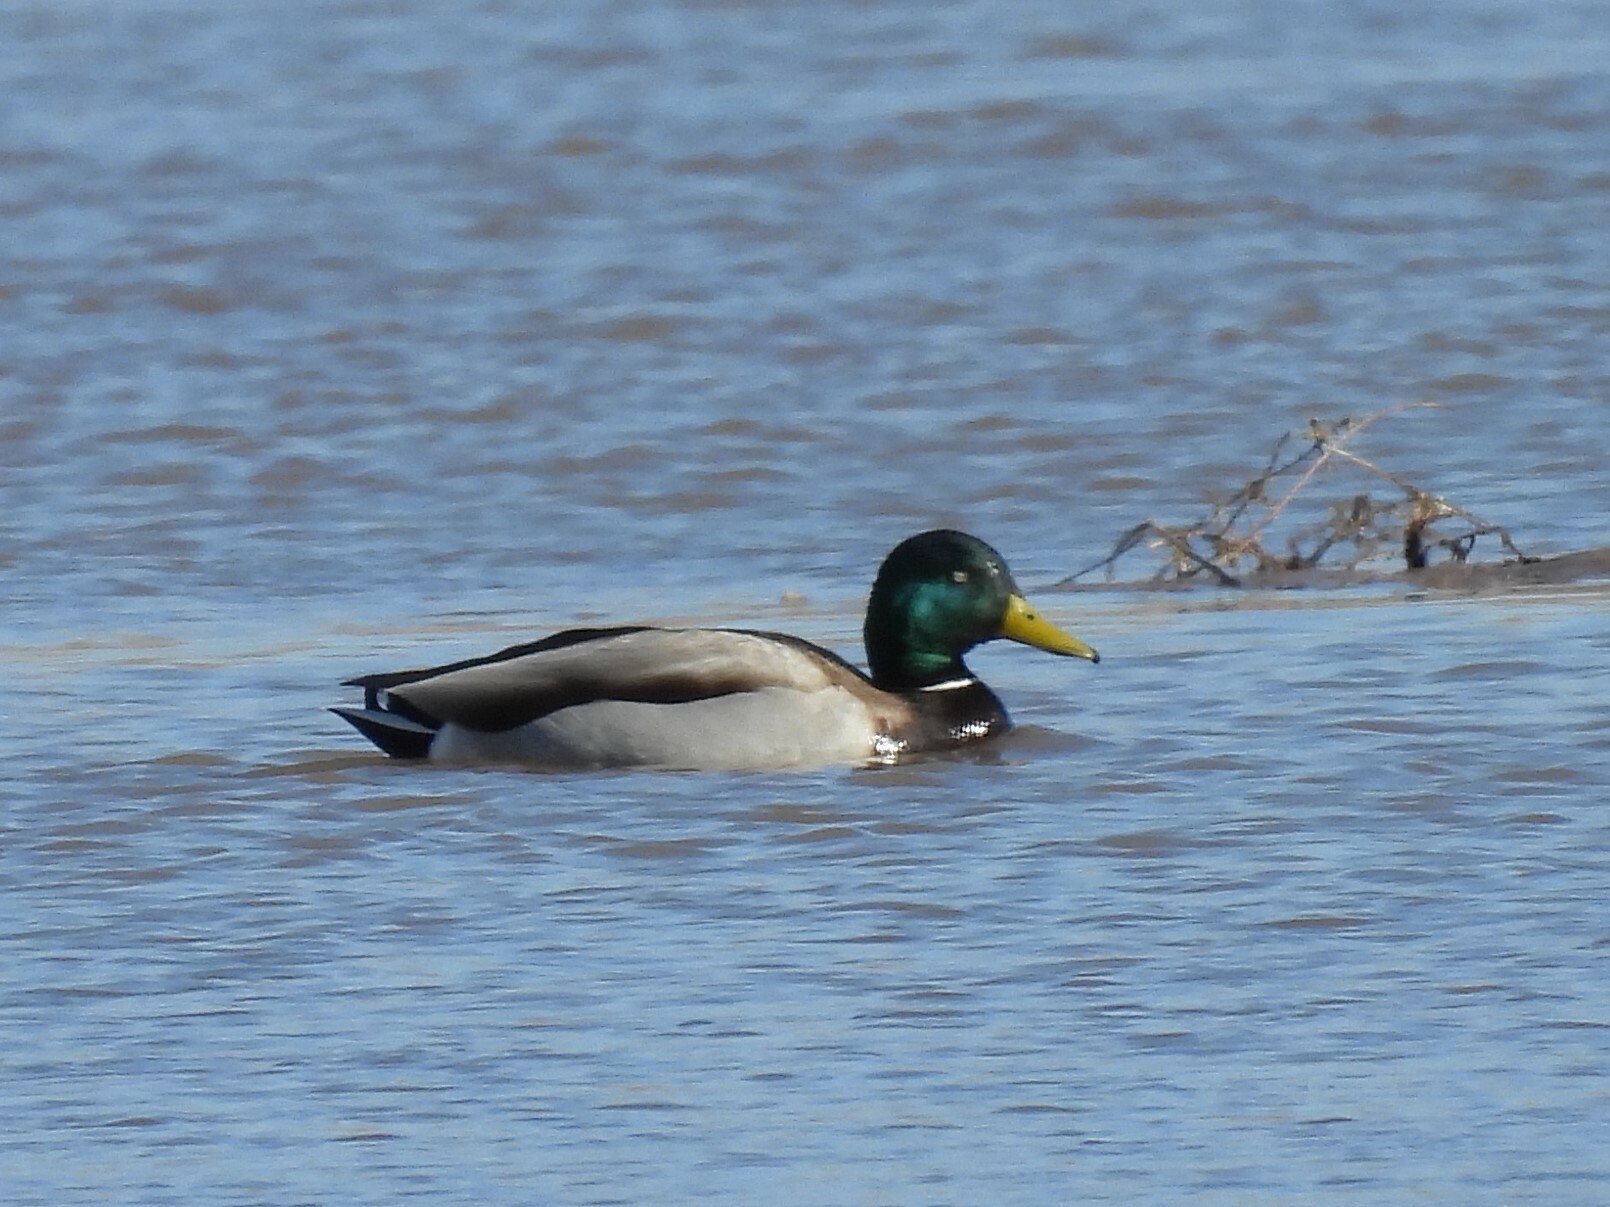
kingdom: Animalia
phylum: Chordata
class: Aves
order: Anseriformes
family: Anatidae
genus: Anas
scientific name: Anas platyrhynchos
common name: Mallard
